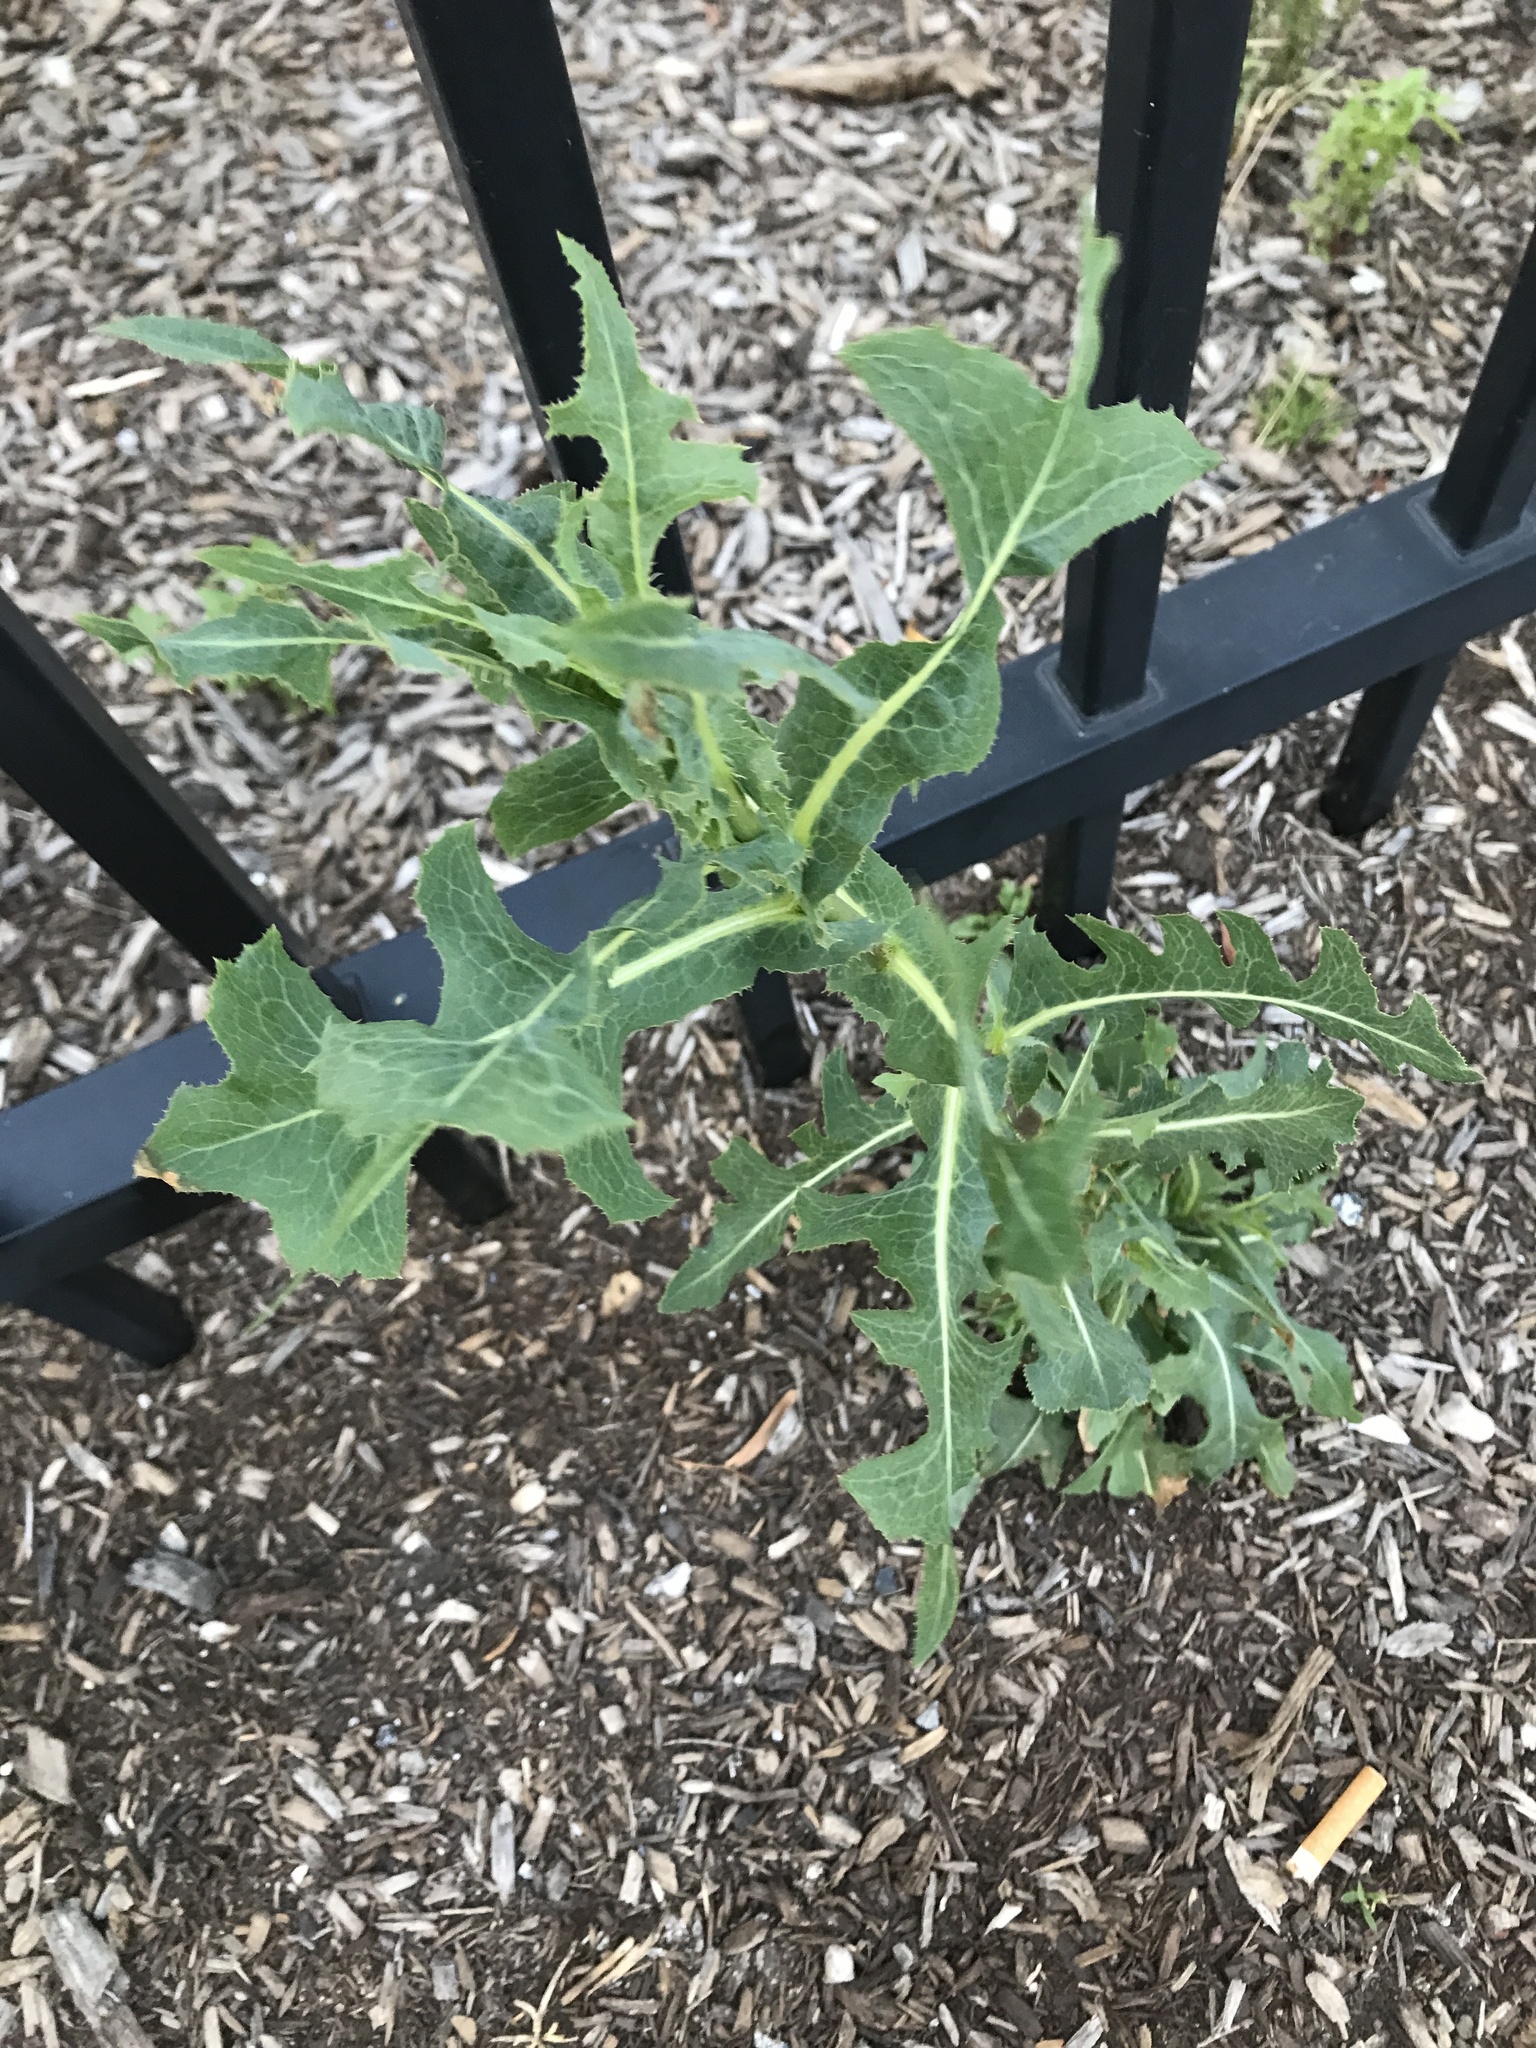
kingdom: Plantae
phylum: Tracheophyta
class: Magnoliopsida
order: Asterales
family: Asteraceae
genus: Lactuca
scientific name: Lactuca serriola
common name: Prickly lettuce
